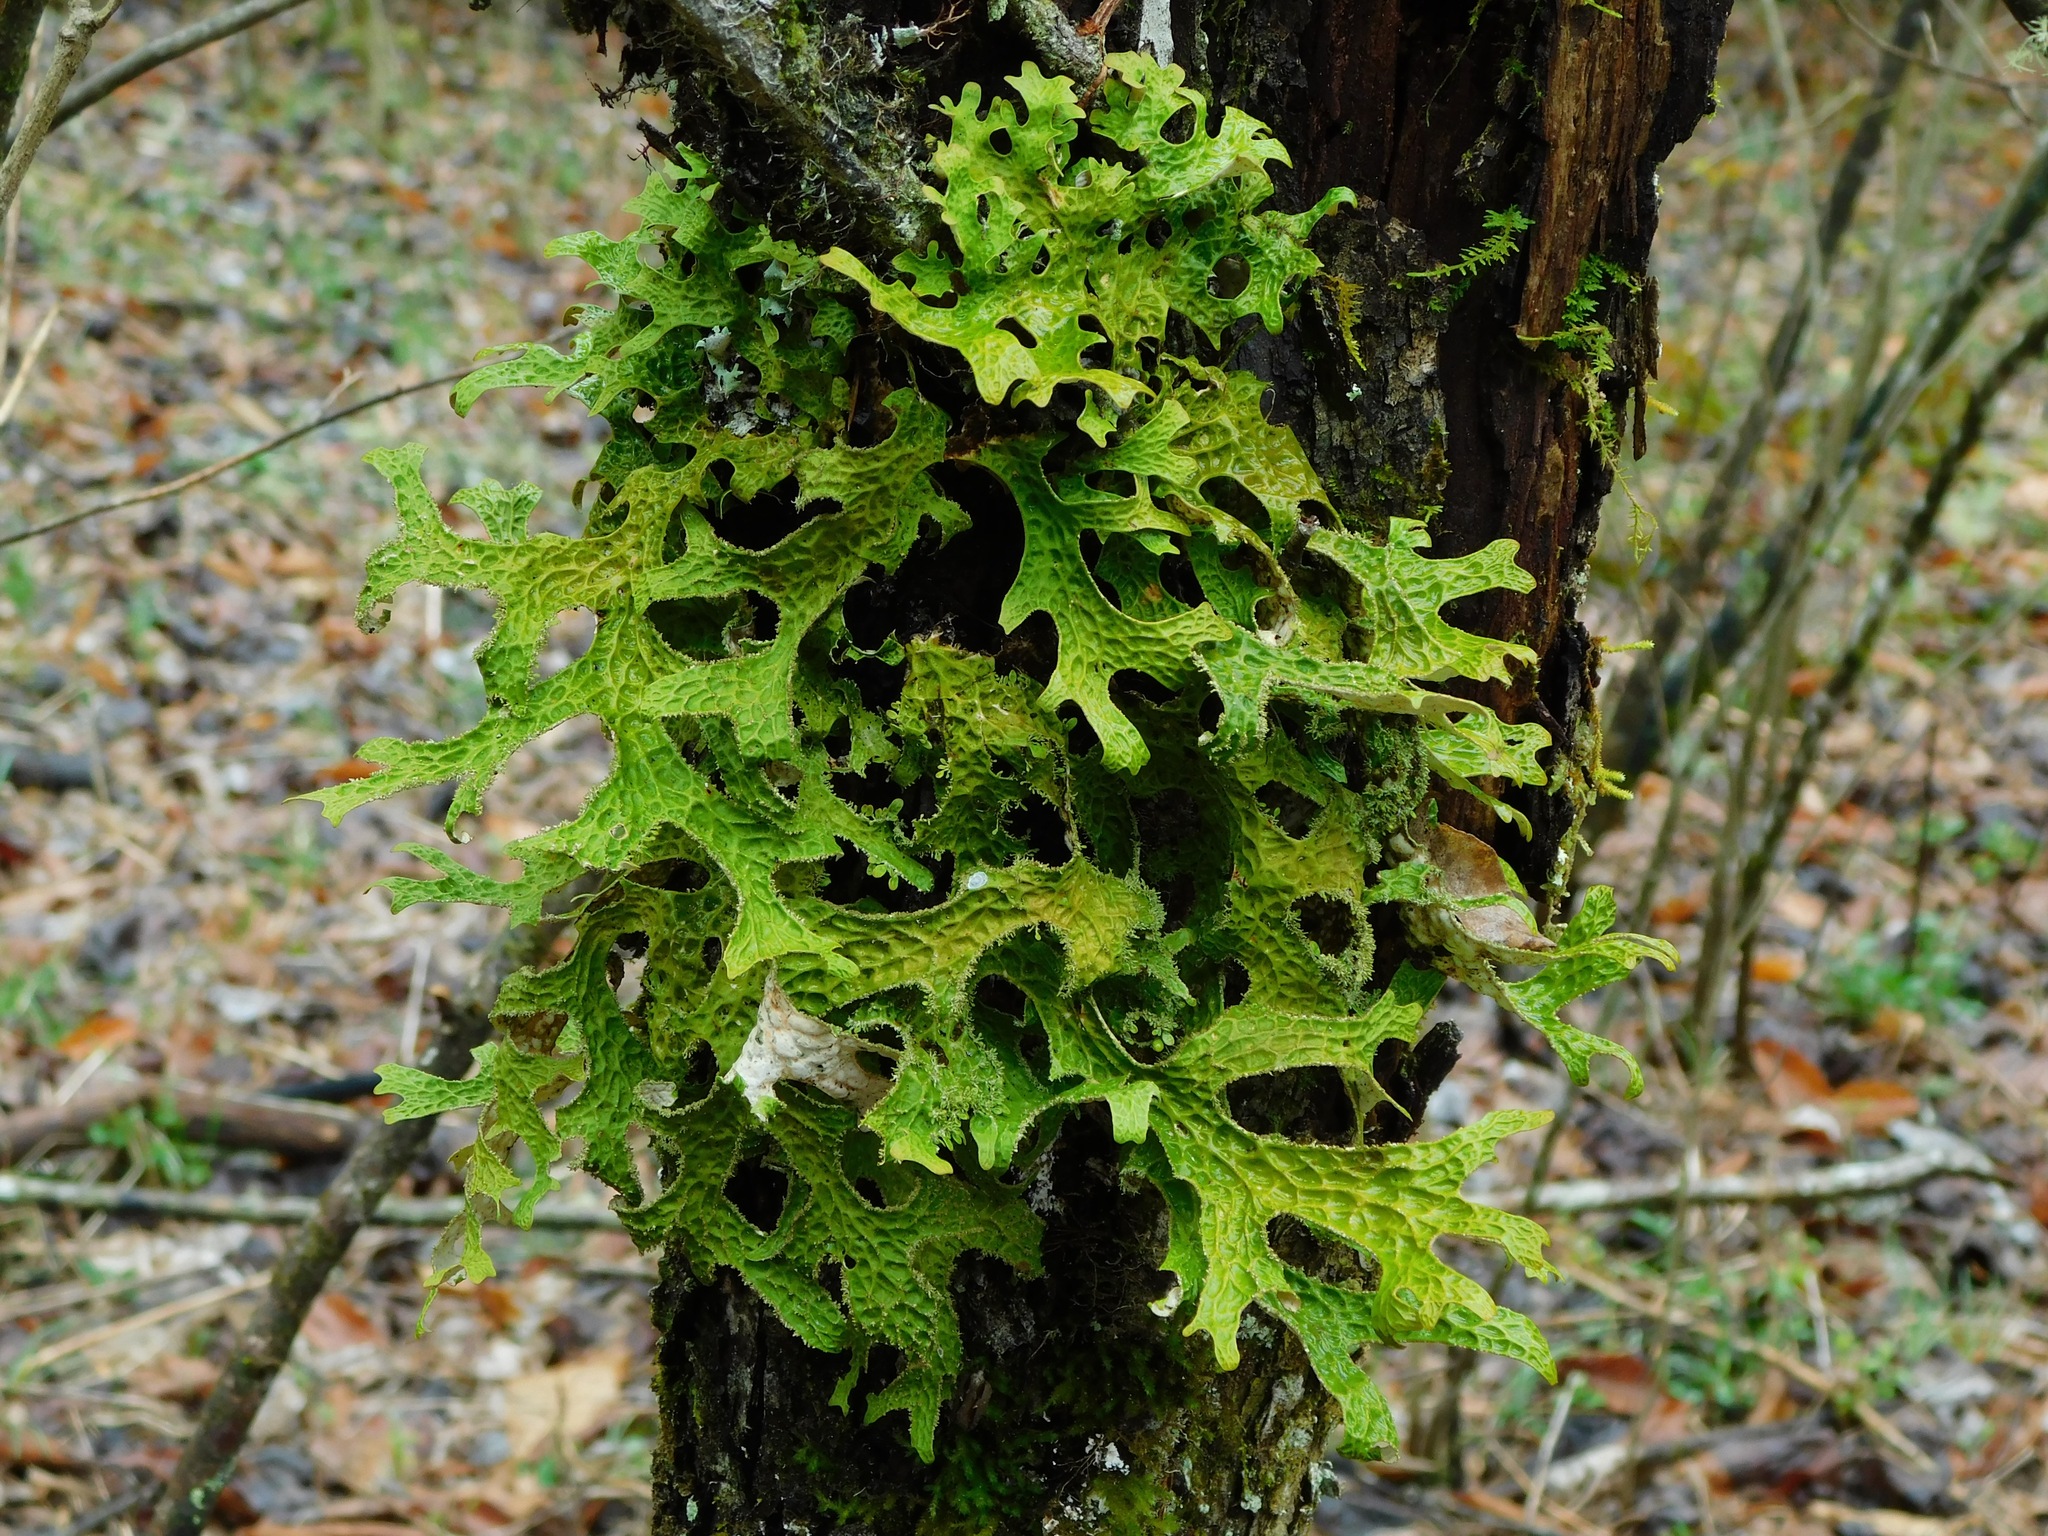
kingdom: Fungi
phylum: Ascomycota
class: Lecanoromycetes
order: Peltigerales
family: Lobariaceae
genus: Lobaria
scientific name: Lobaria pulmonaria
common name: Lungwort
